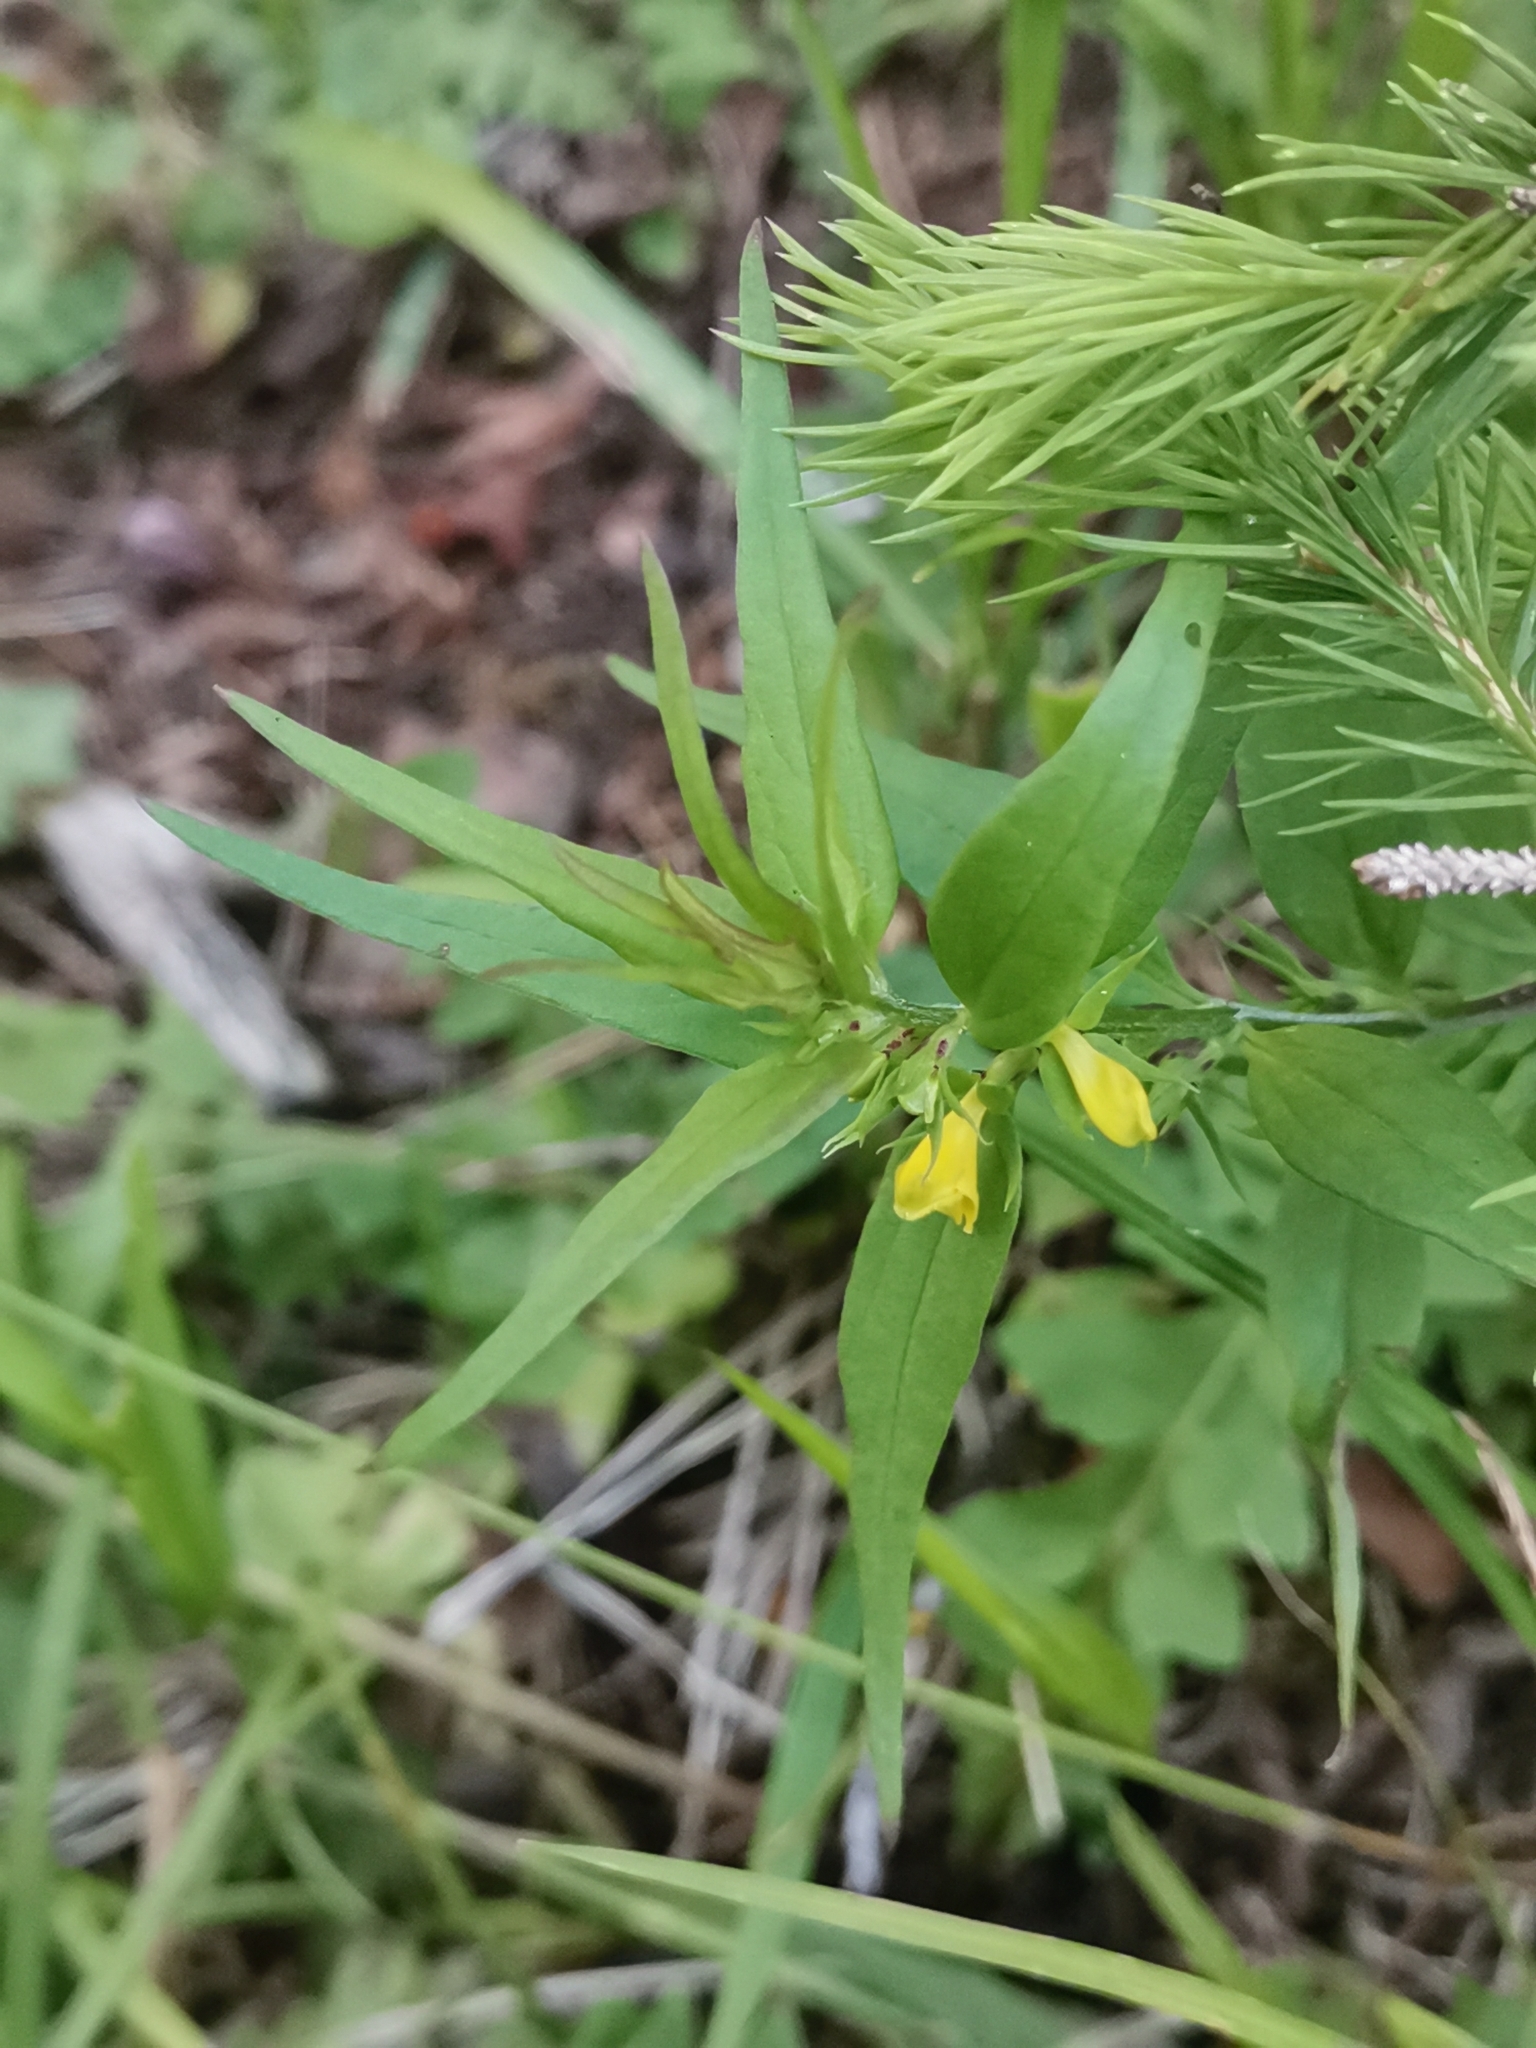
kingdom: Plantae
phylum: Tracheophyta
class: Magnoliopsida
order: Lamiales
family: Orobanchaceae
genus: Melampyrum
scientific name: Melampyrum sylvaticum
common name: Small cow-wheat
